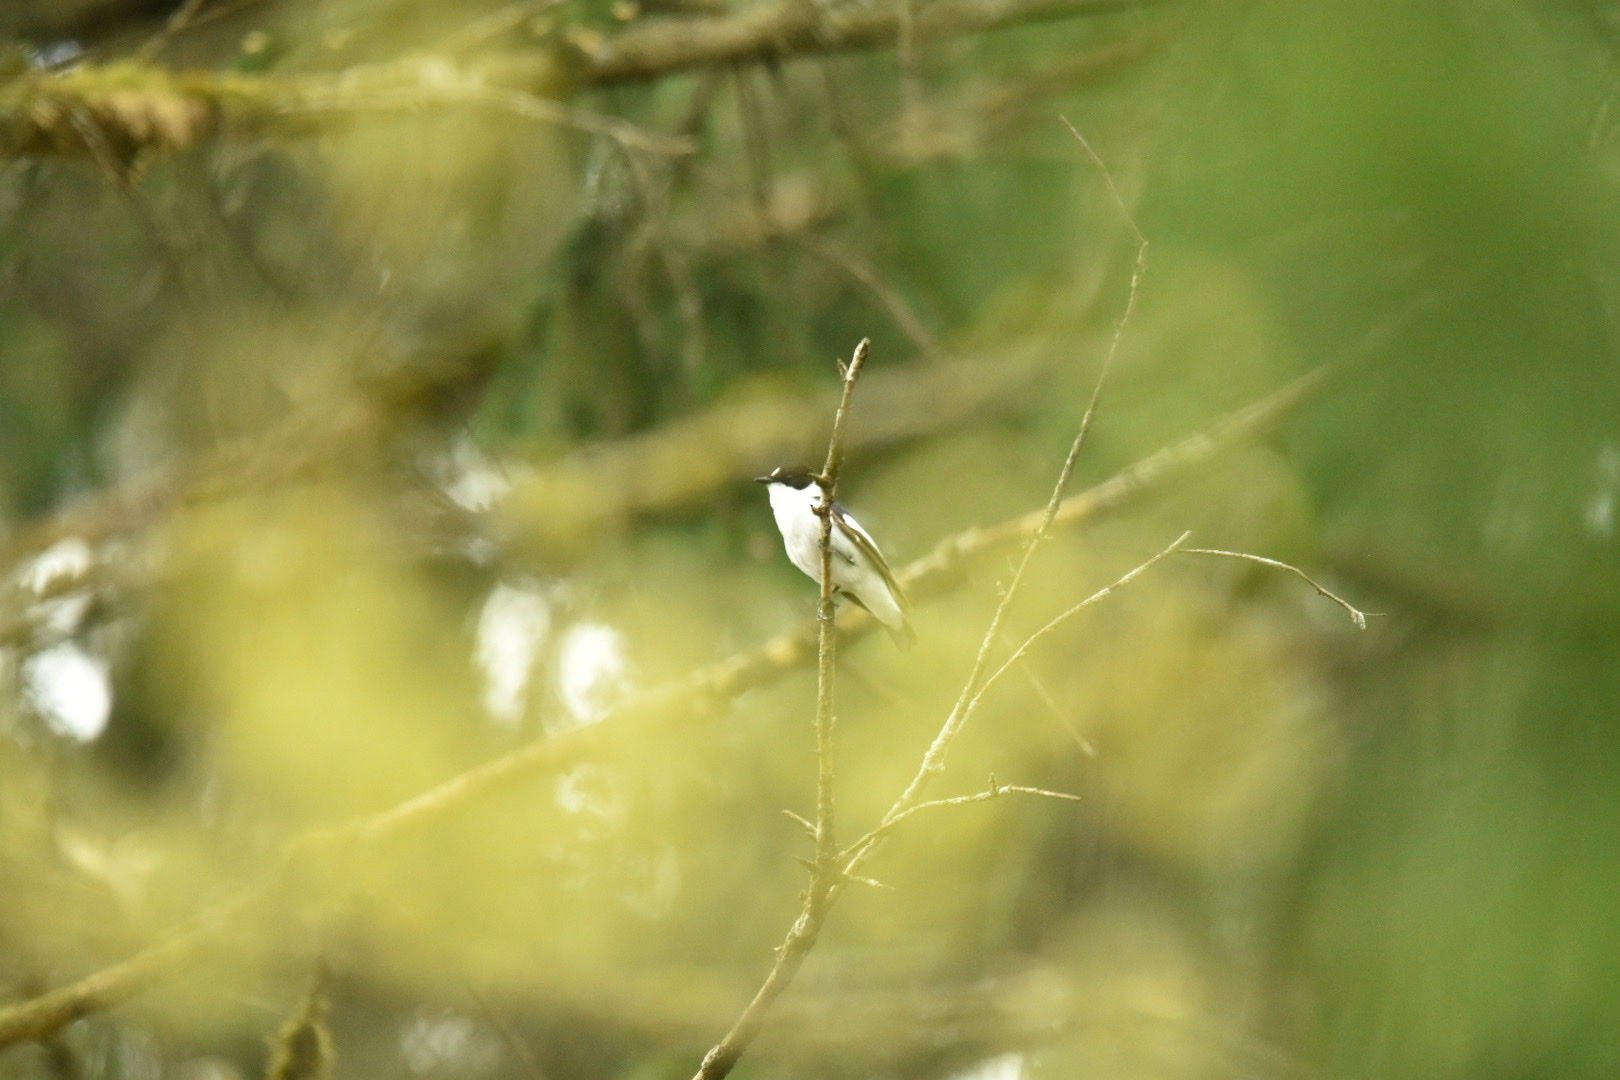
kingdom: Animalia
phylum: Chordata
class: Aves
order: Passeriformes
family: Muscicapidae
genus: Ficedula
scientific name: Ficedula albicollis
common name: Collared flycatcher
